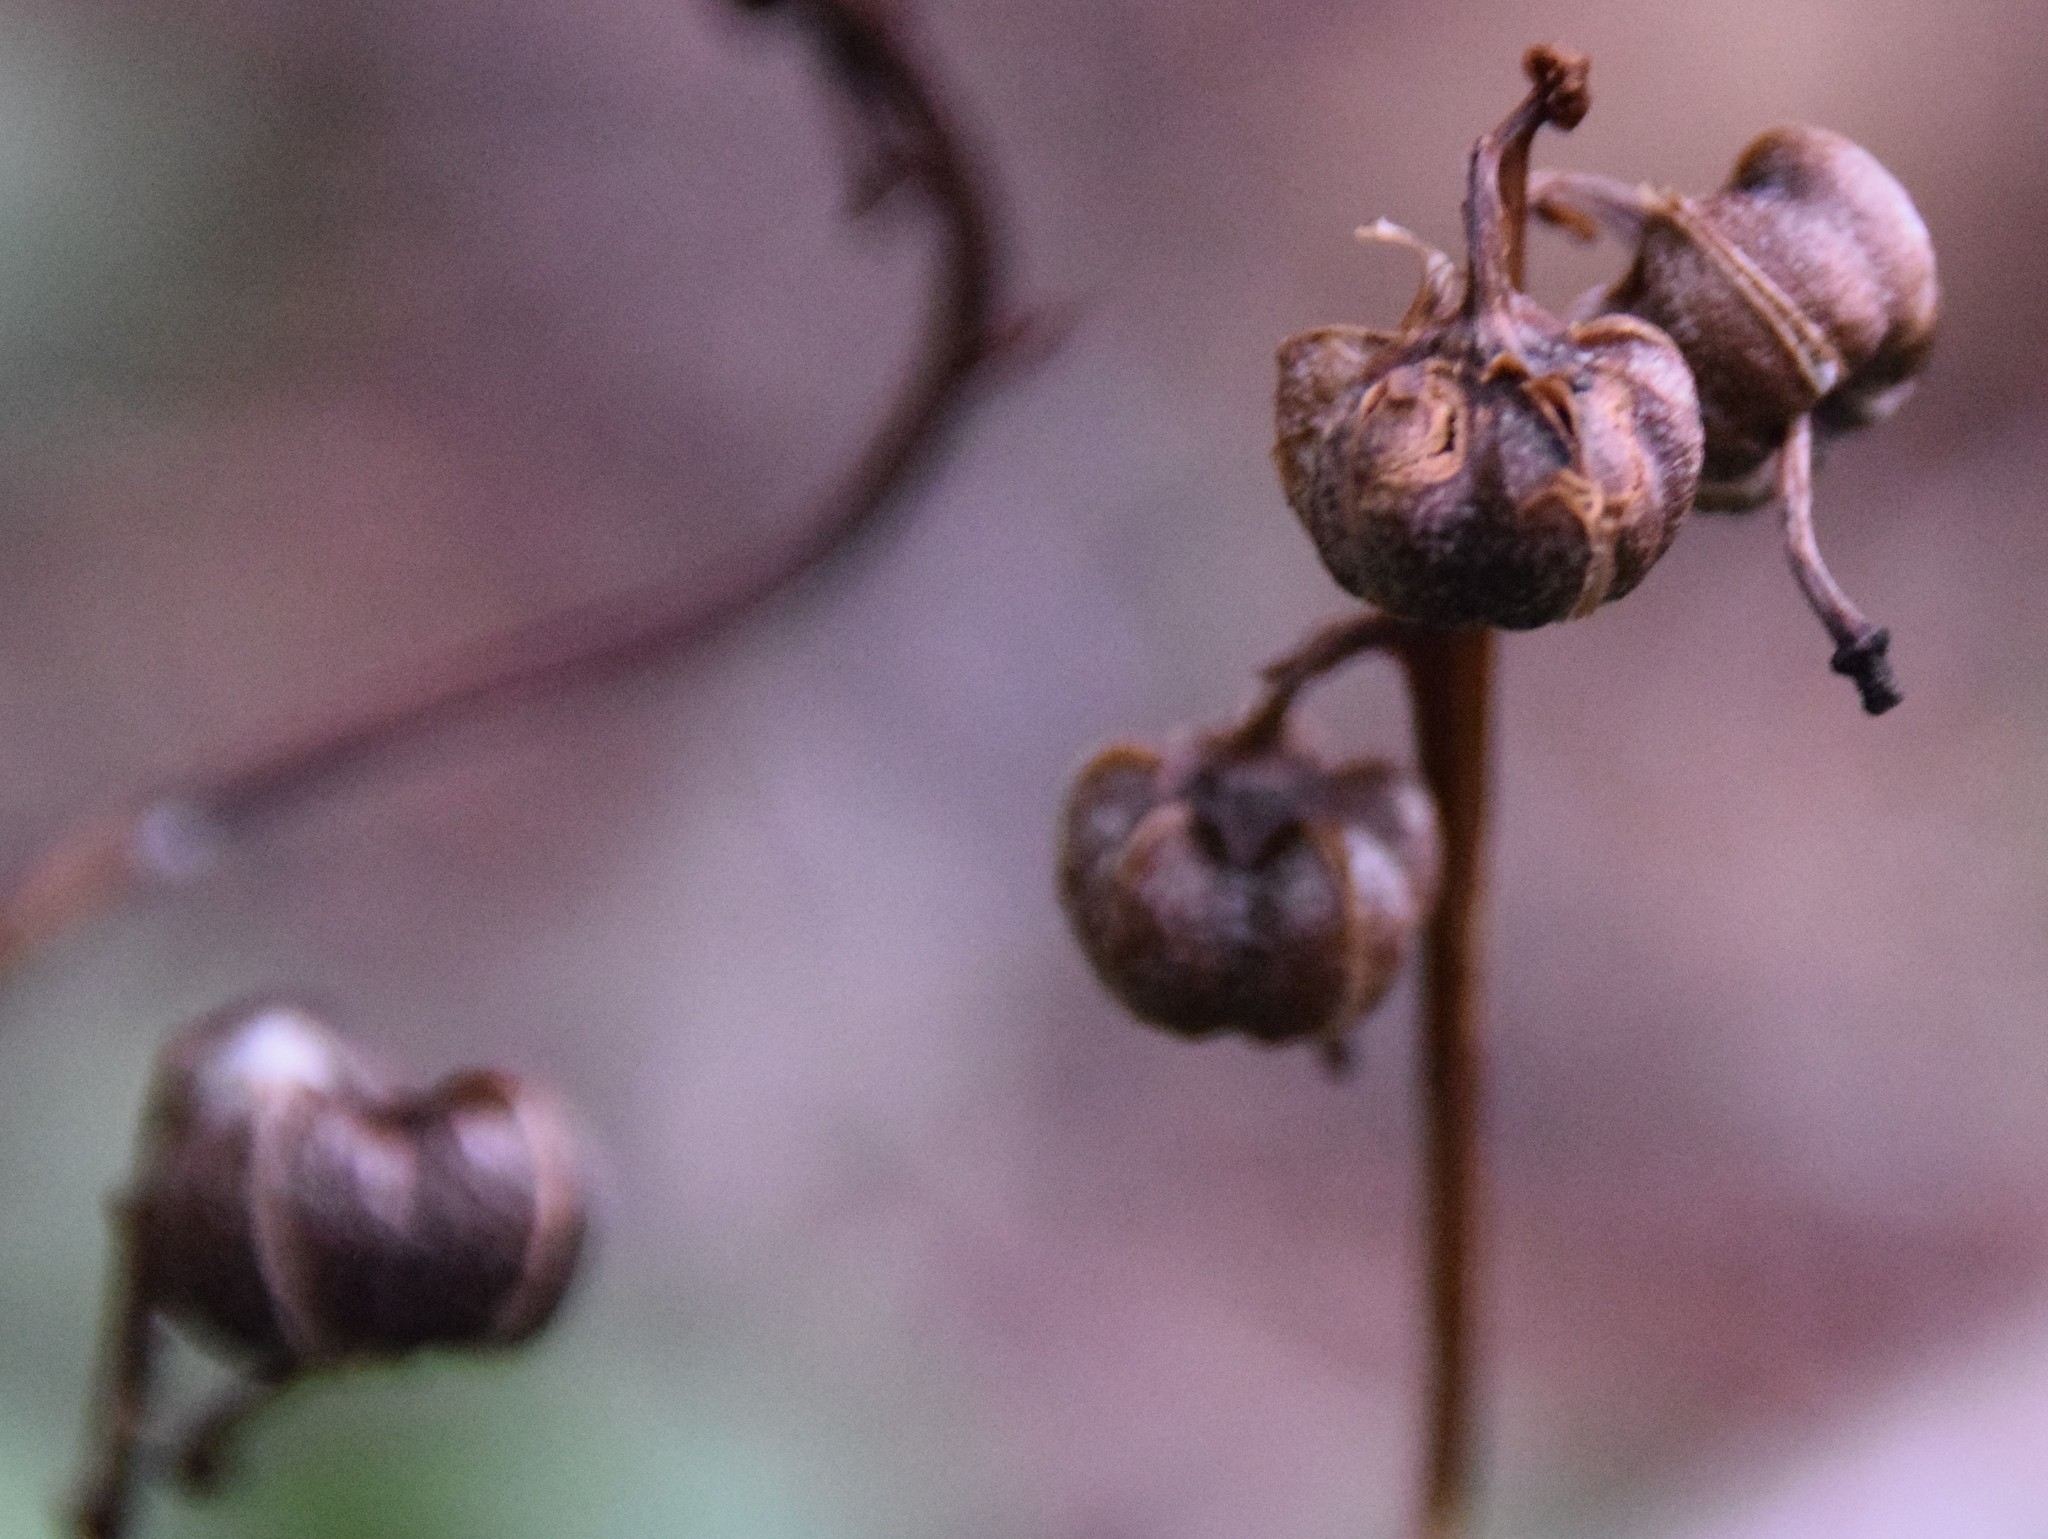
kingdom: Plantae
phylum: Tracheophyta
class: Magnoliopsida
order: Ericales
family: Ericaceae
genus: Pyrola
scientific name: Pyrola chlorantha
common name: Green wintergreen
